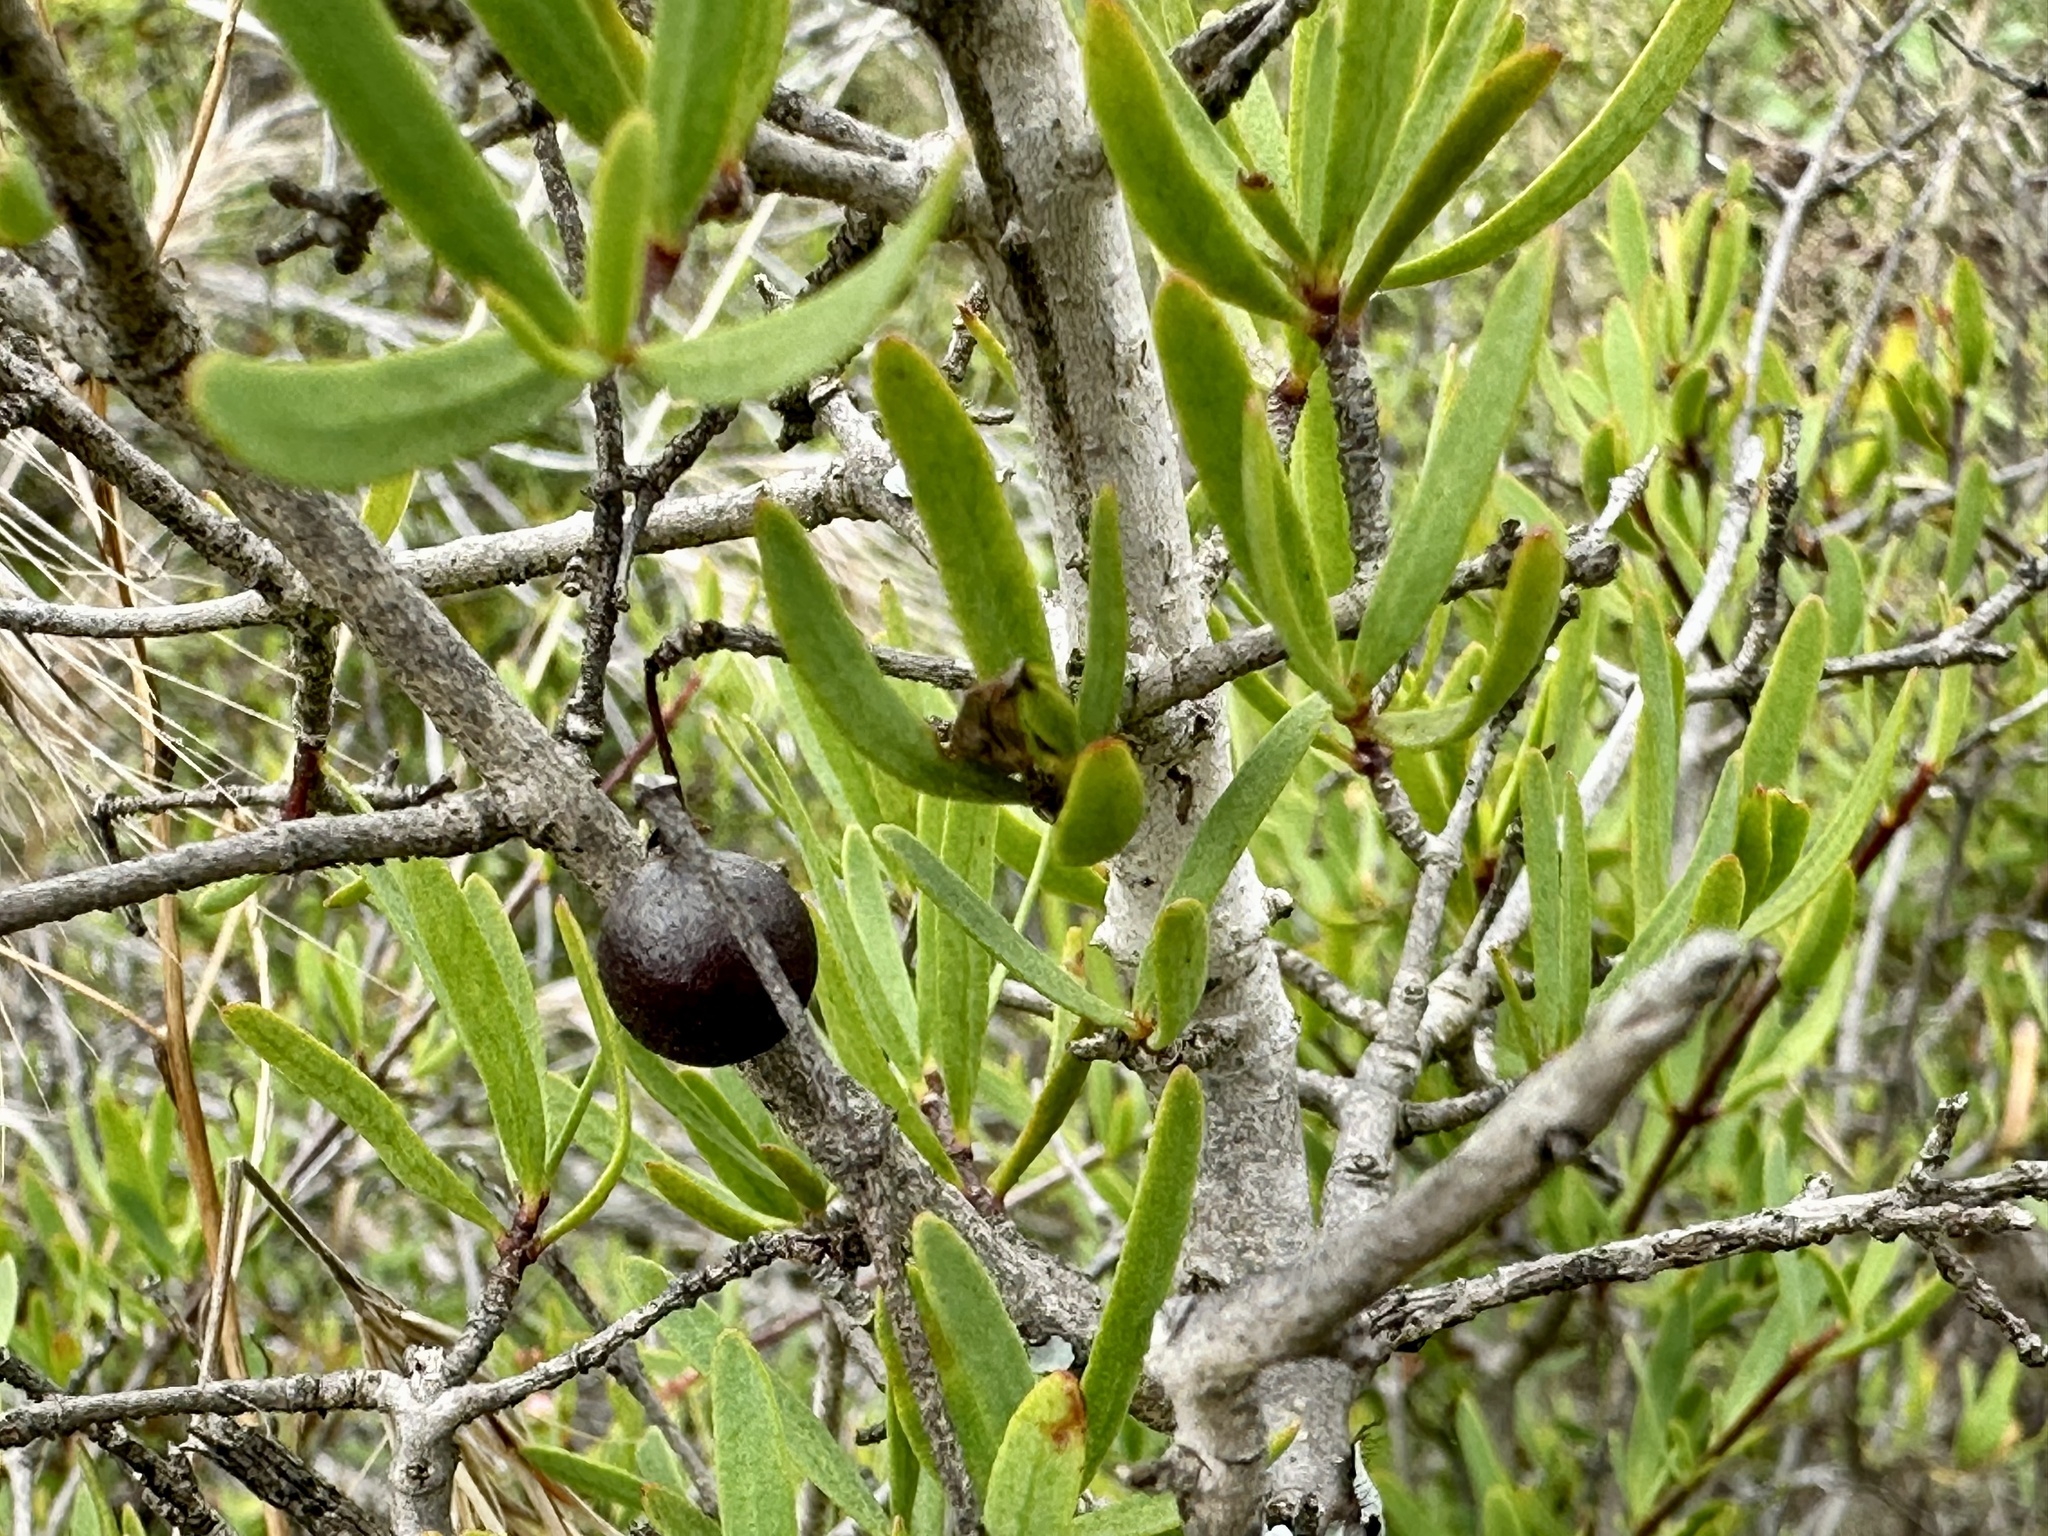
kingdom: Plantae
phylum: Tracheophyta
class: Magnoliopsida
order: Sapindales
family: Rutaceae
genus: Cneoridium
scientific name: Cneoridium dumosum
